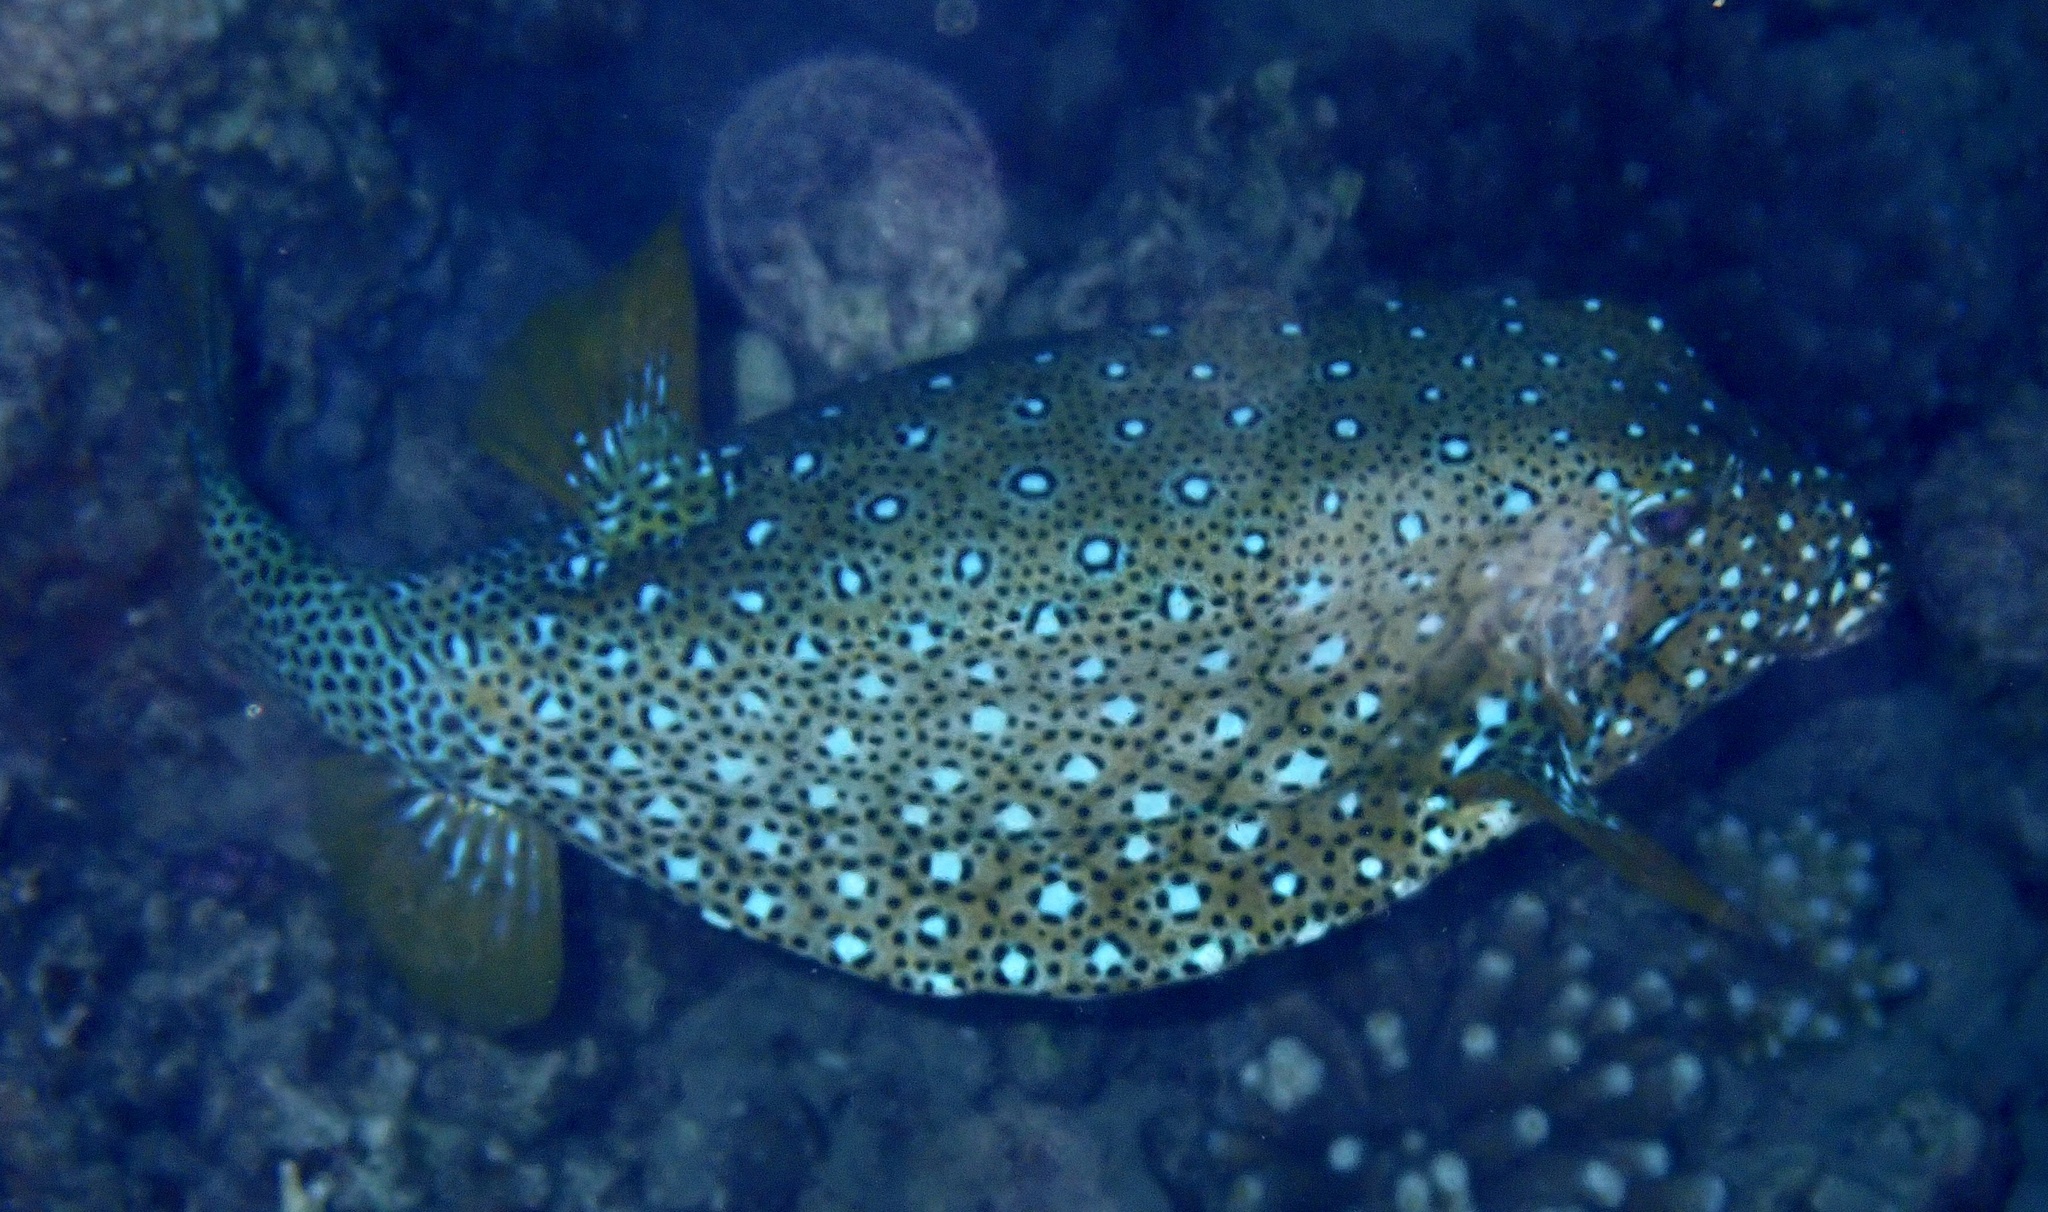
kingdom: Animalia
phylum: Chordata
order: Tetraodontiformes
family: Ostraciidae
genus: Ostracion
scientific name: Ostracion cubicus
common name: Cube trunkfish
